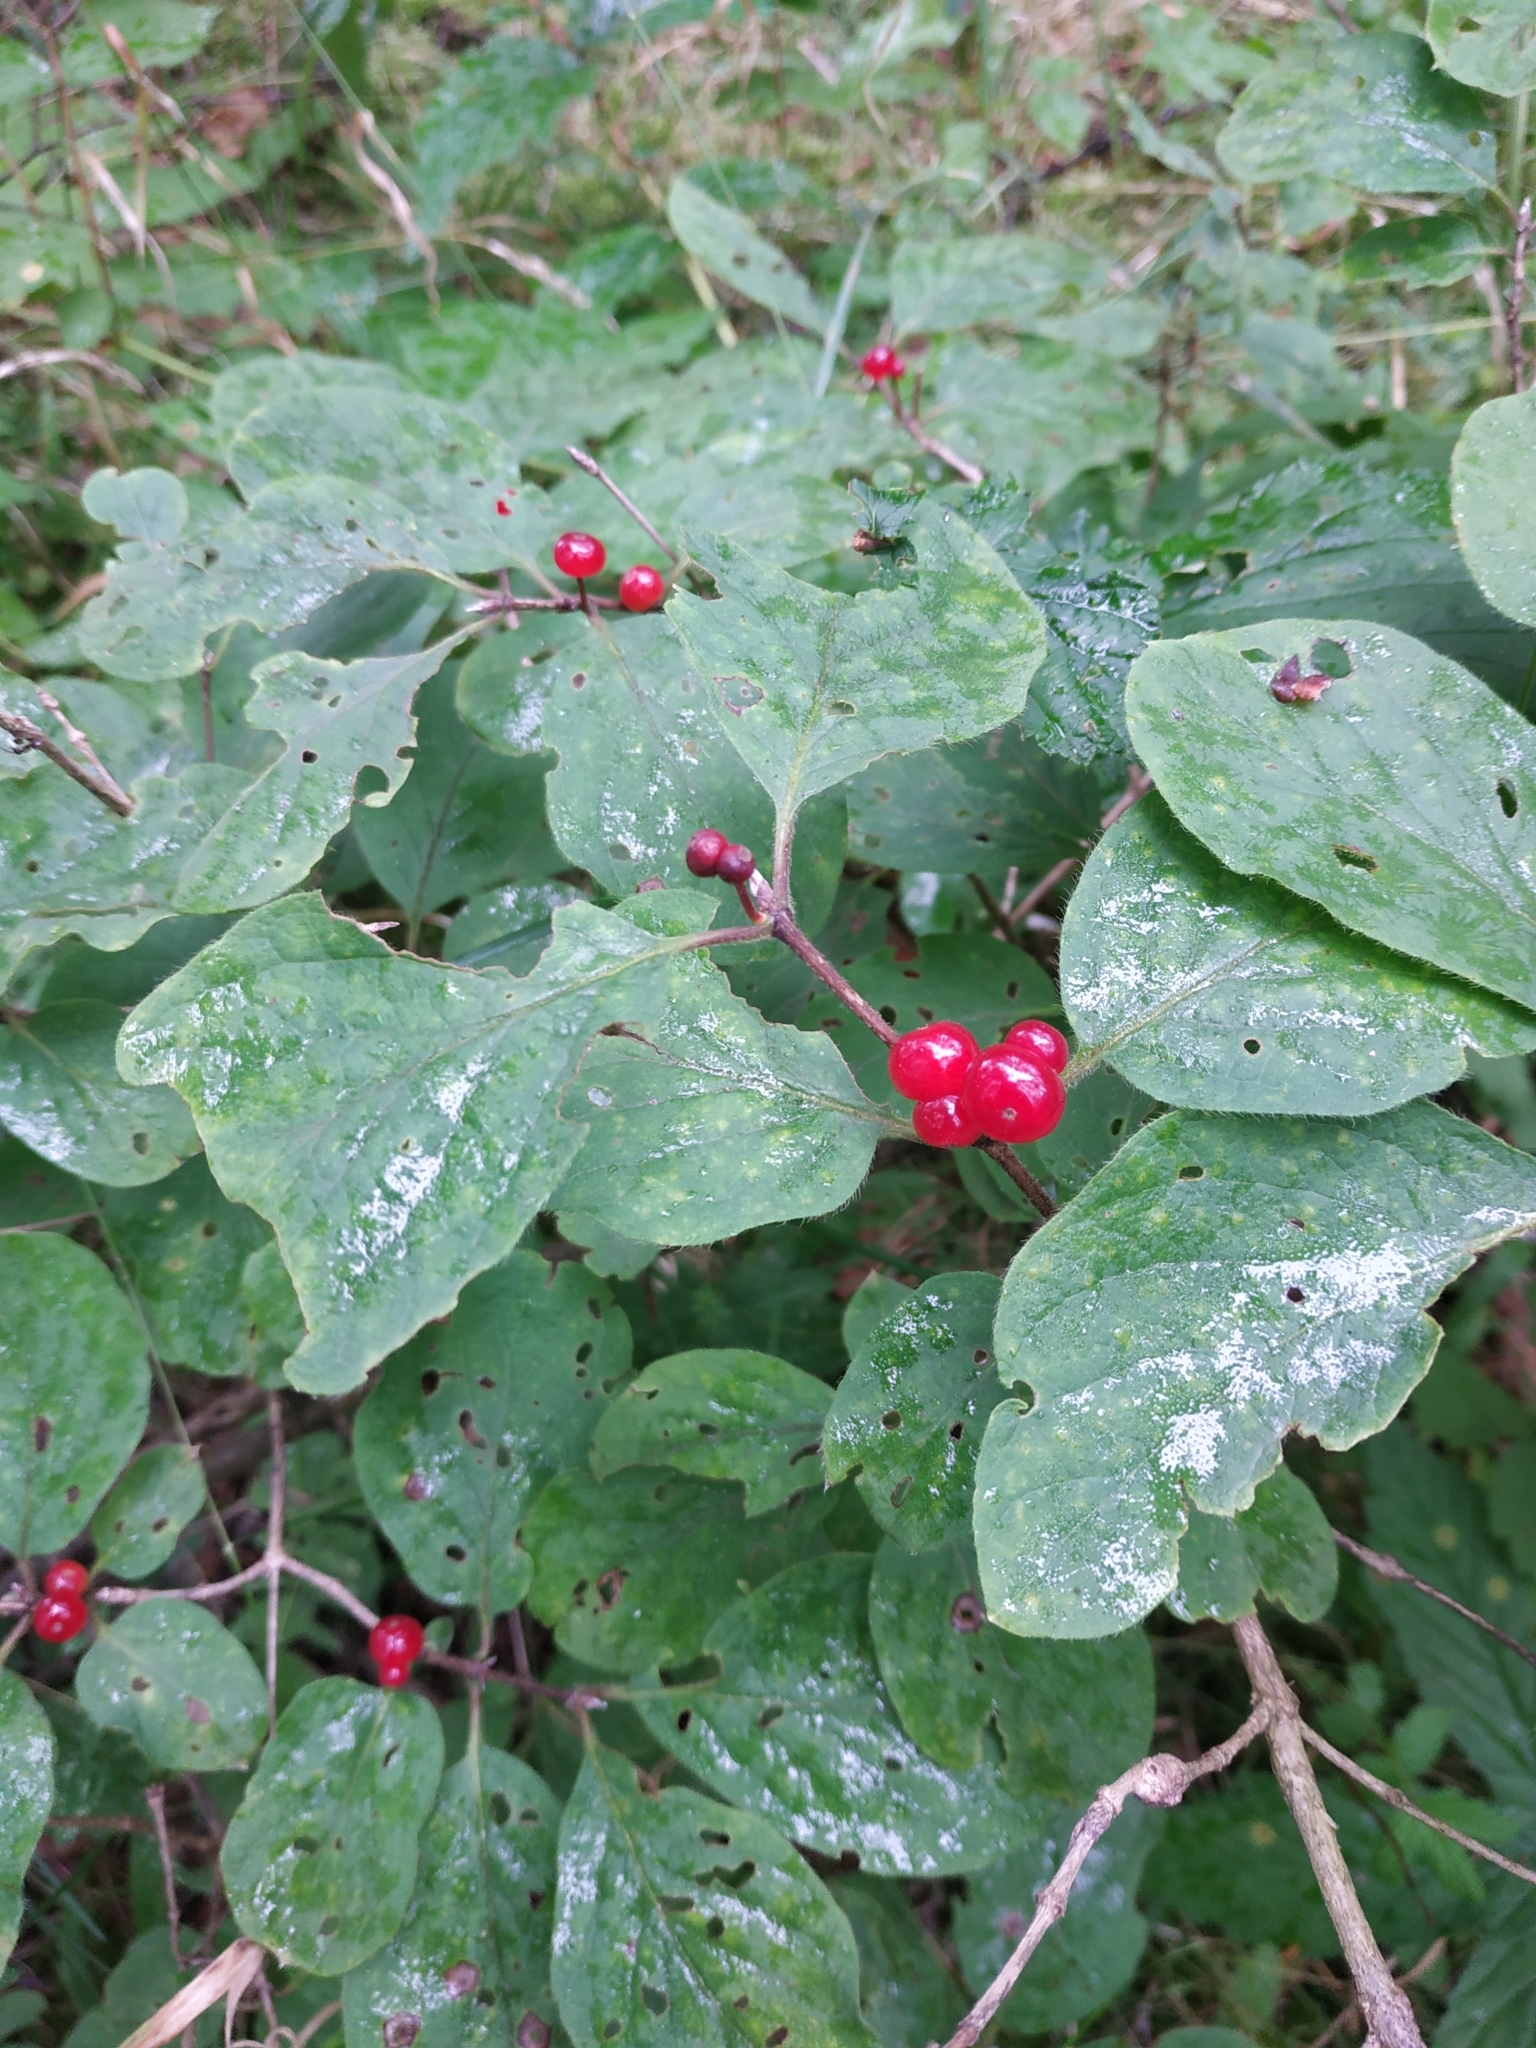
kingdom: Plantae
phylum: Tracheophyta
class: Magnoliopsida
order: Dipsacales
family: Caprifoliaceae
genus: Lonicera
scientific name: Lonicera xylosteum
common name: Fly honeysuckle
